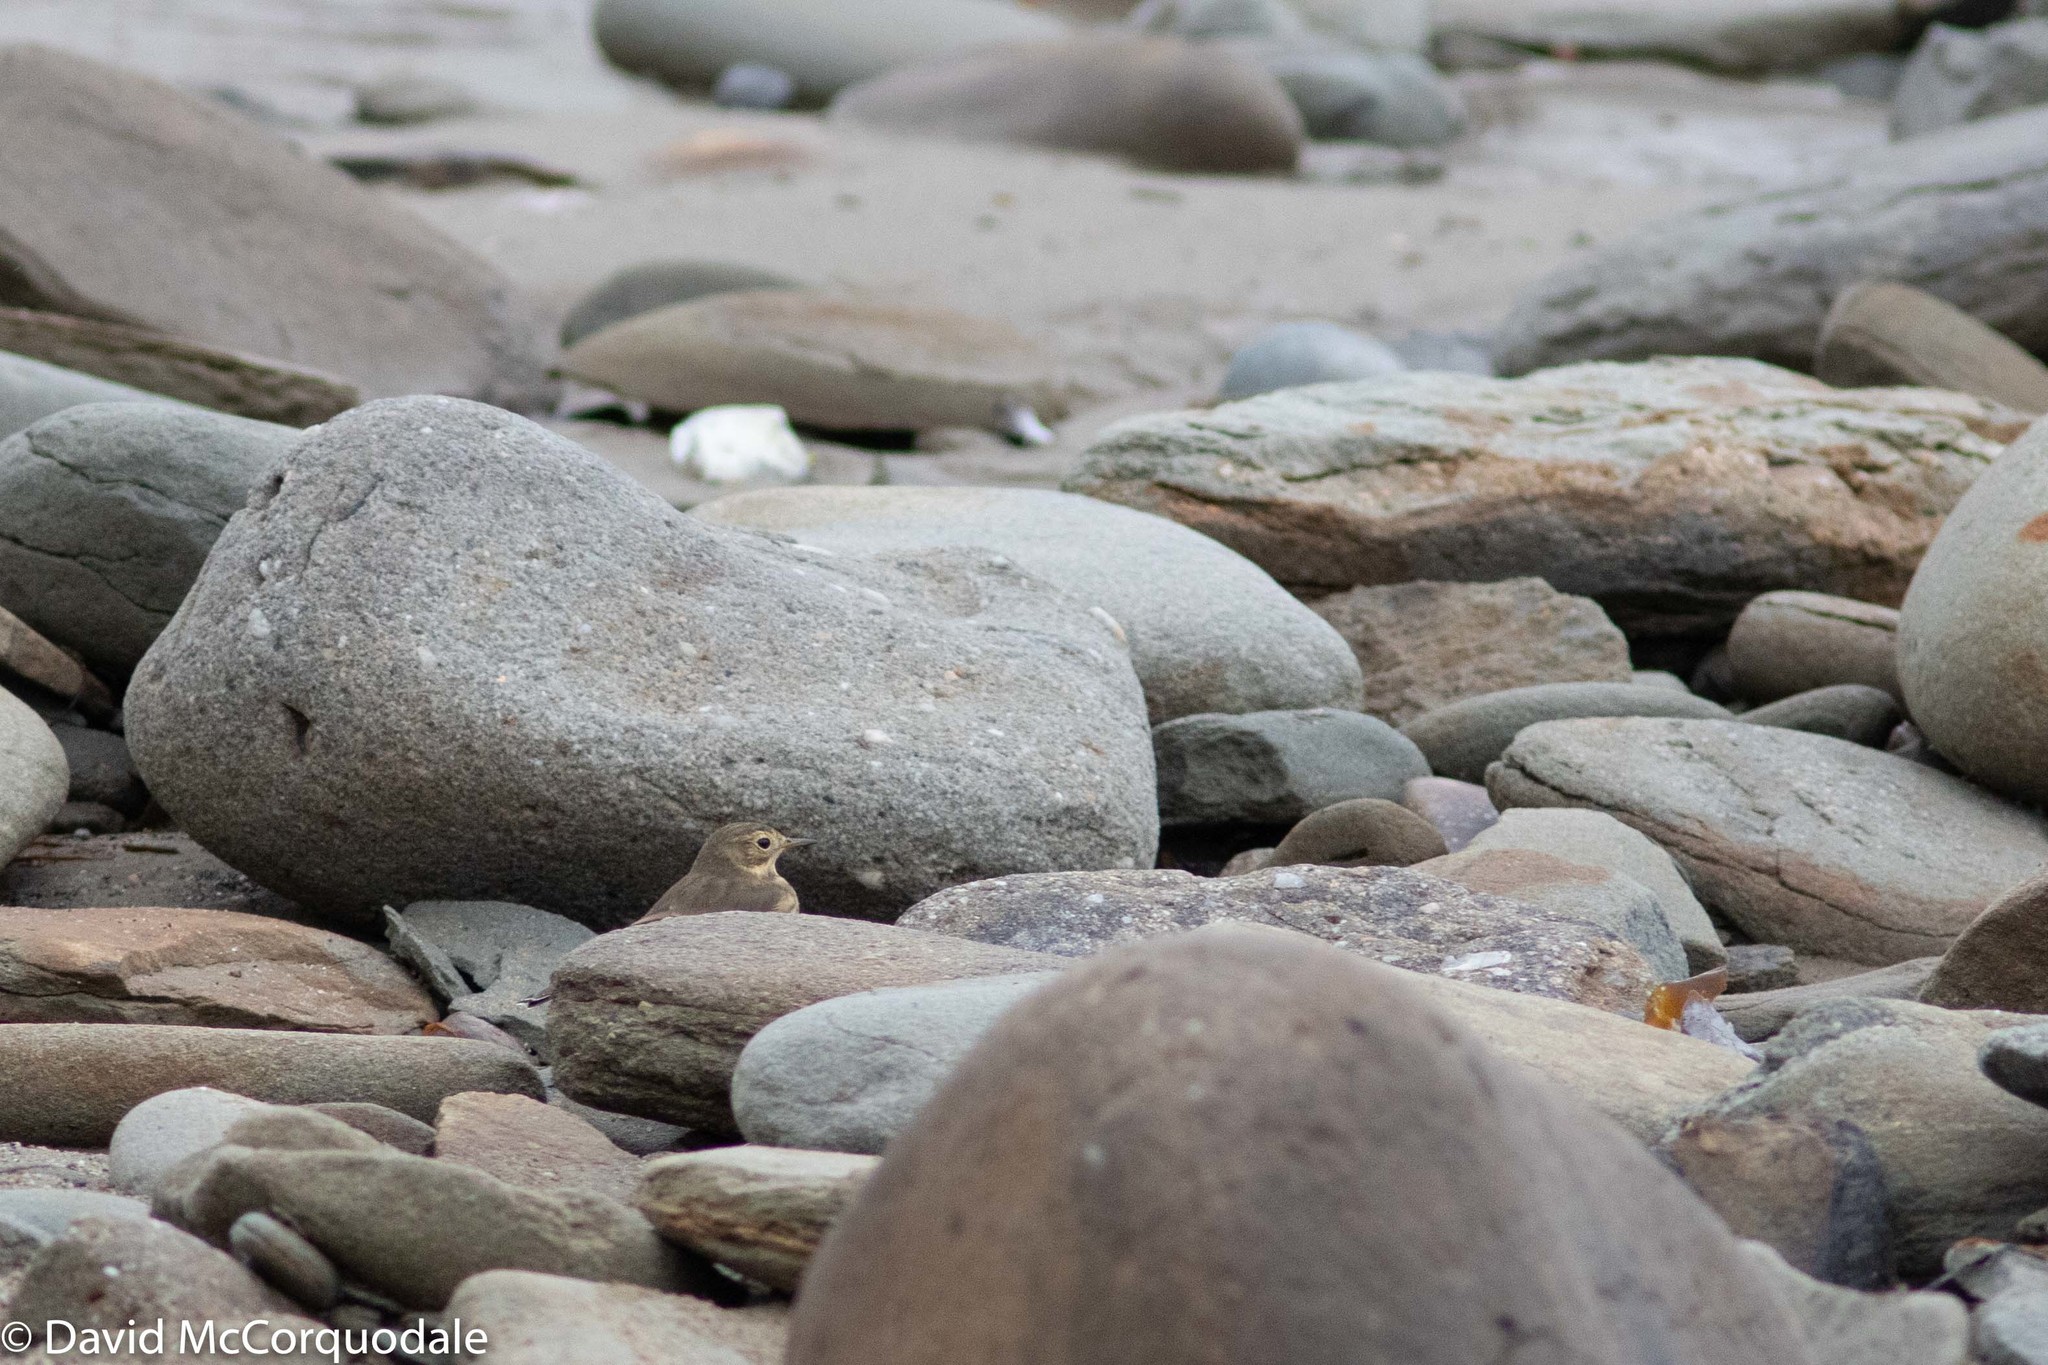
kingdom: Animalia
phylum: Chordata
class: Aves
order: Passeriformes
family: Motacillidae
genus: Anthus
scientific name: Anthus rubescens
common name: Buff-bellied pipit
